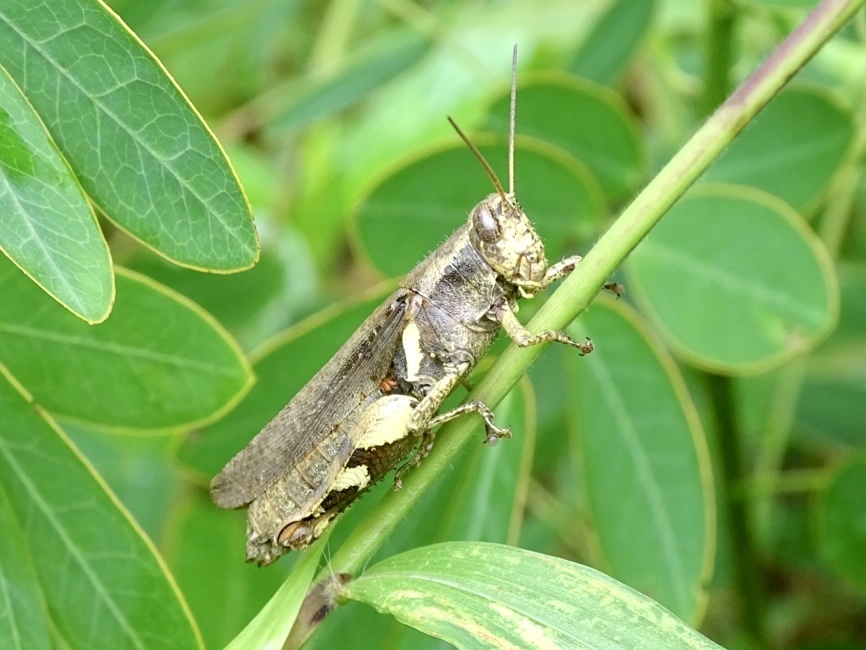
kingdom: Animalia
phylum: Arthropoda
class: Insecta
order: Orthoptera
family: Acrididae
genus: Xenocatantops
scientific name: Xenocatantops brachycerus
